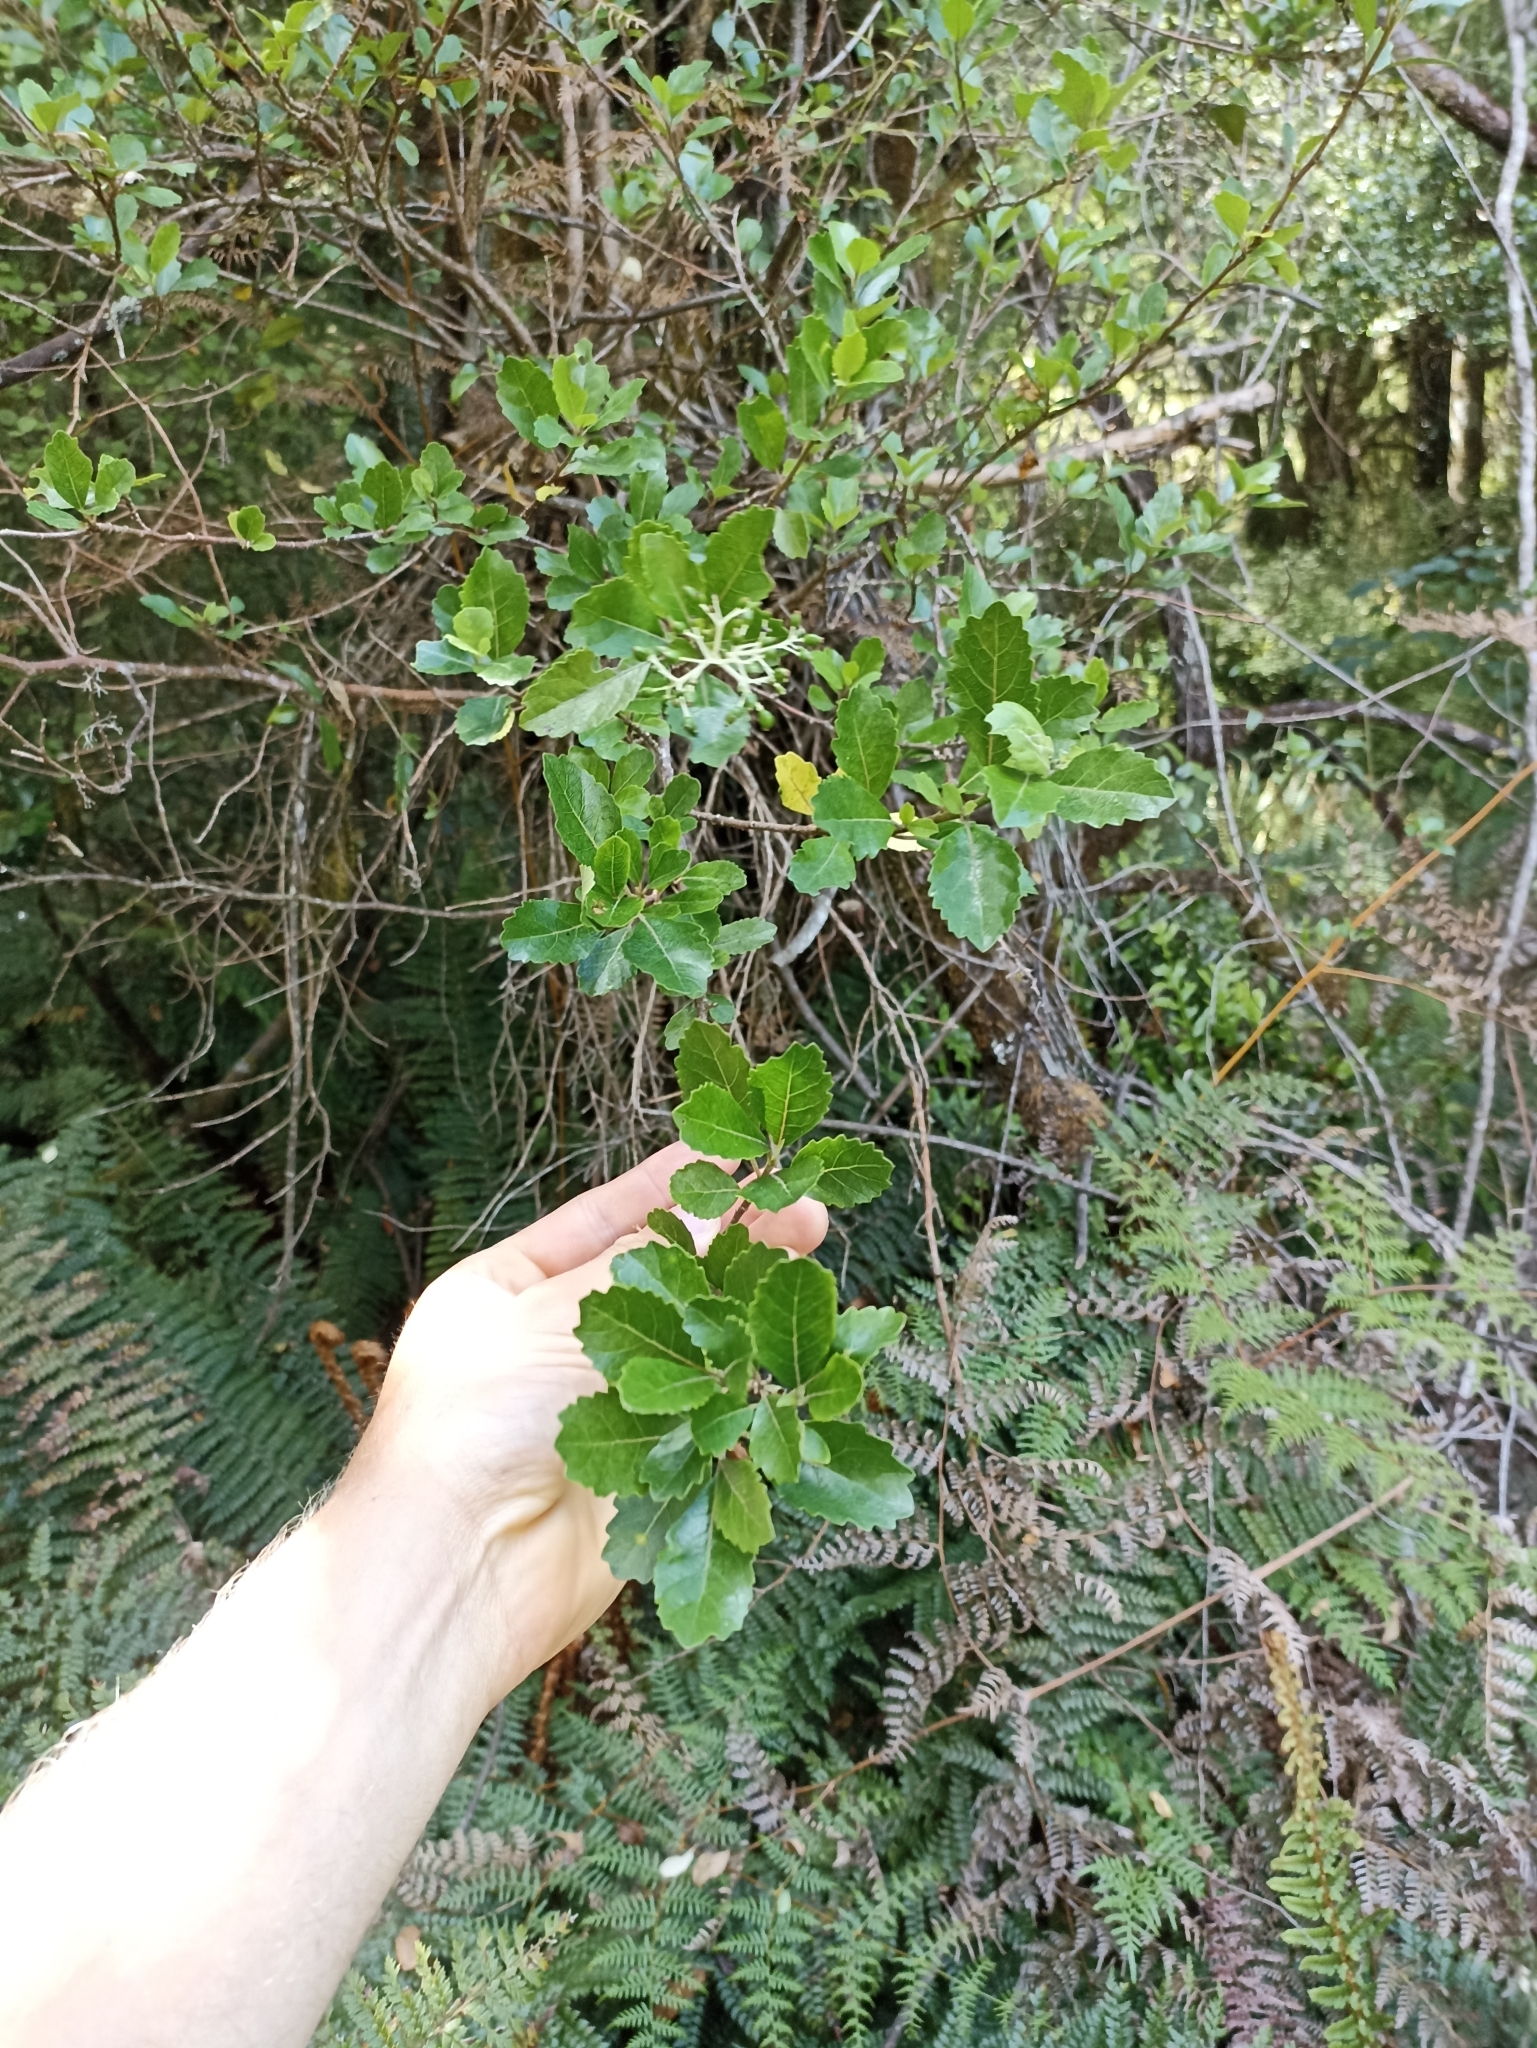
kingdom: Plantae
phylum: Tracheophyta
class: Magnoliopsida
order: Apiales
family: Pennantiaceae
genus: Pennantia
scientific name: Pennantia corymbosa
